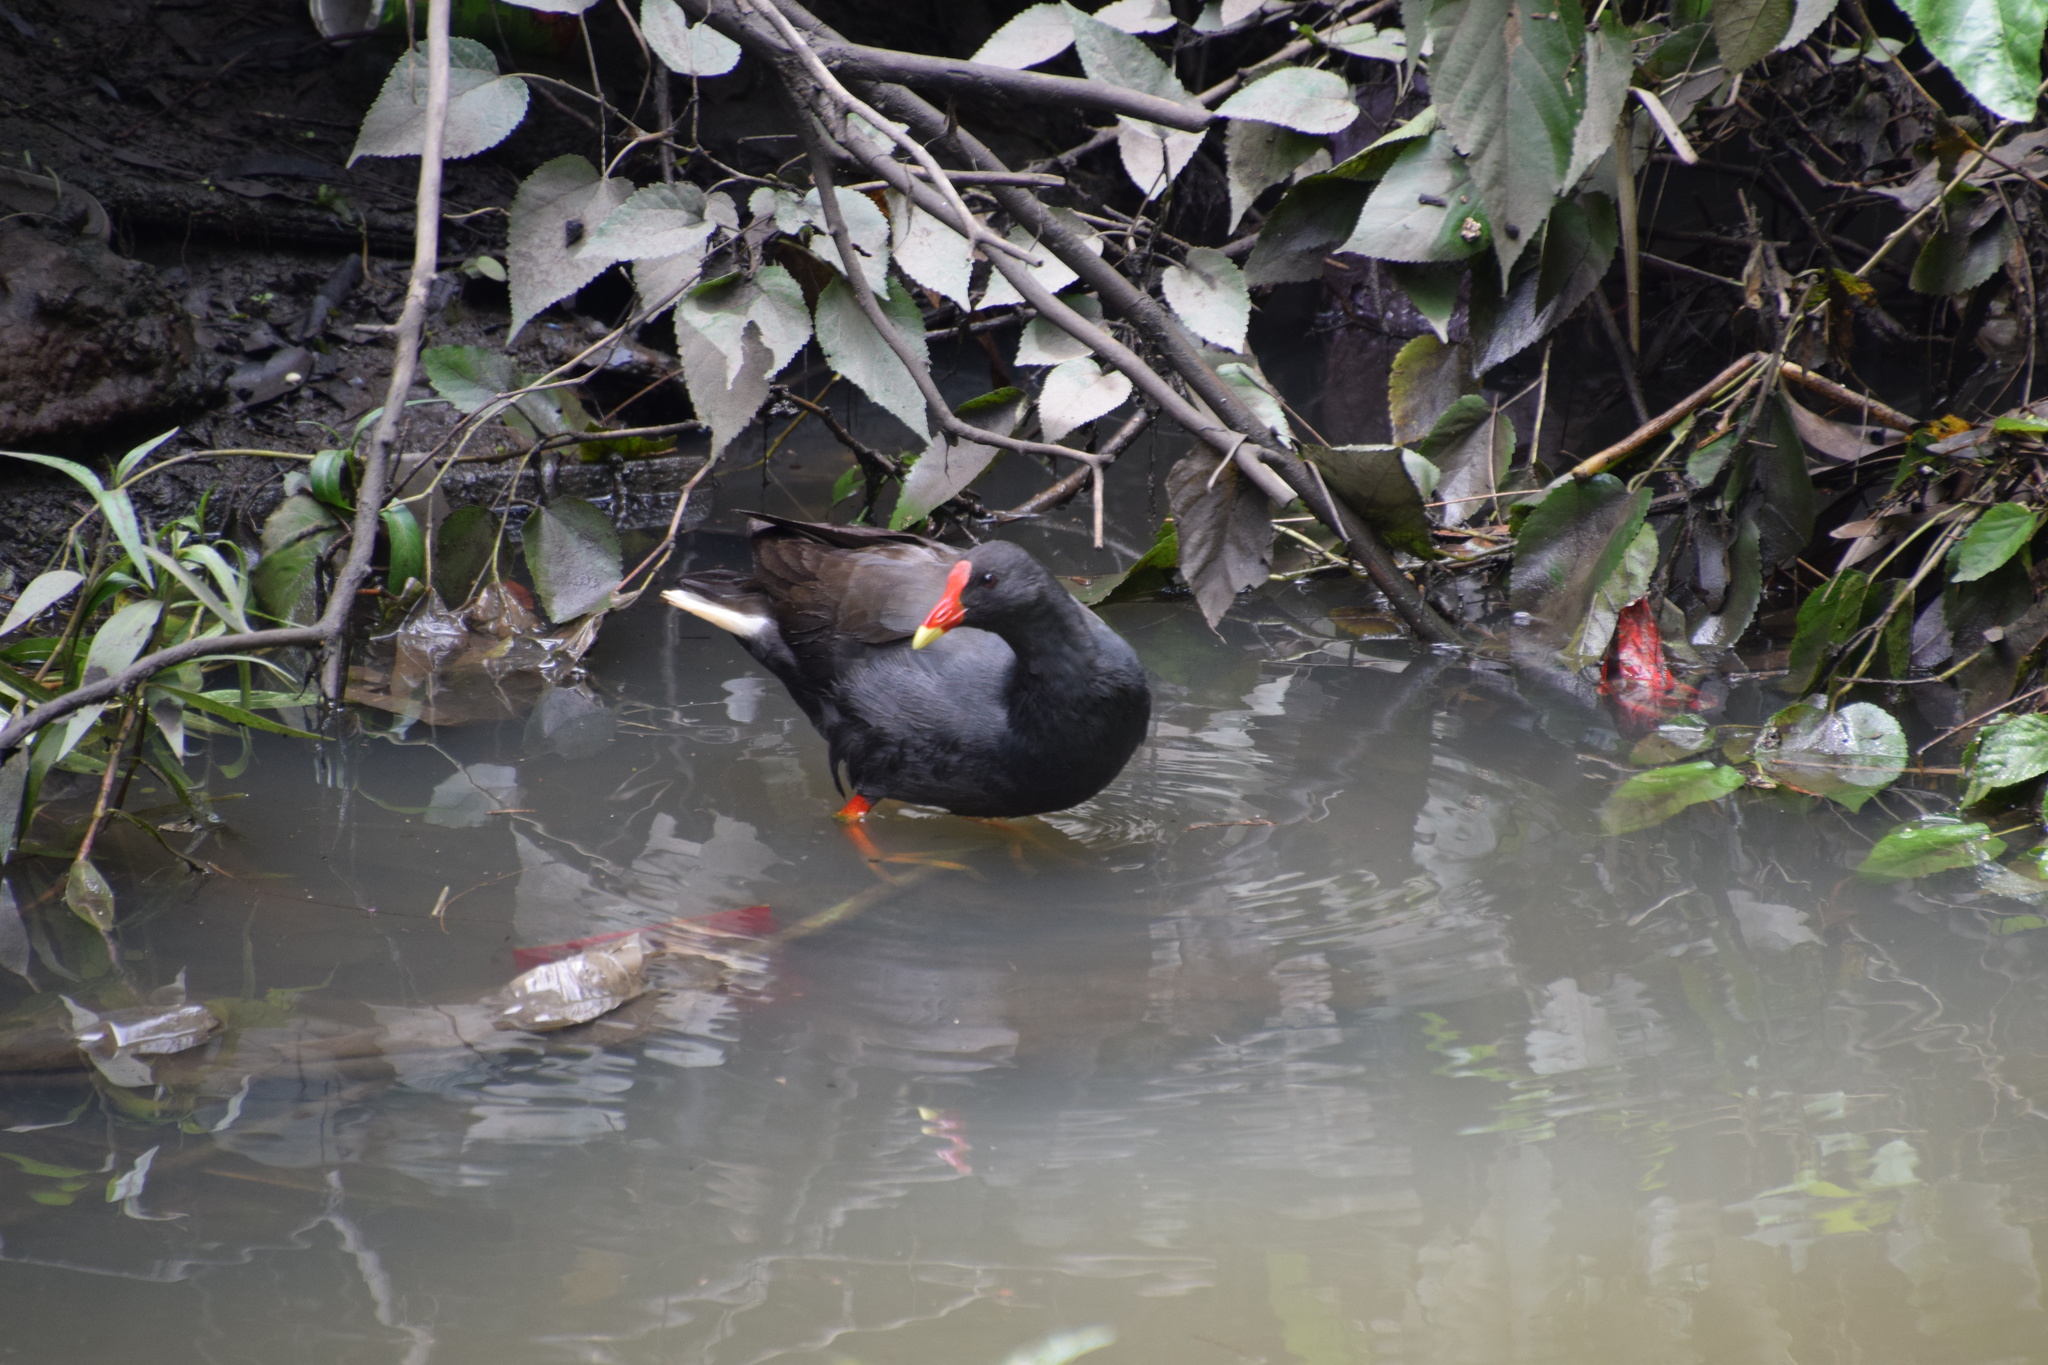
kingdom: Animalia
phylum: Chordata
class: Aves
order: Gruiformes
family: Rallidae
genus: Gallinula
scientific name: Gallinula tenebrosa
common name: Dusky moorhen
